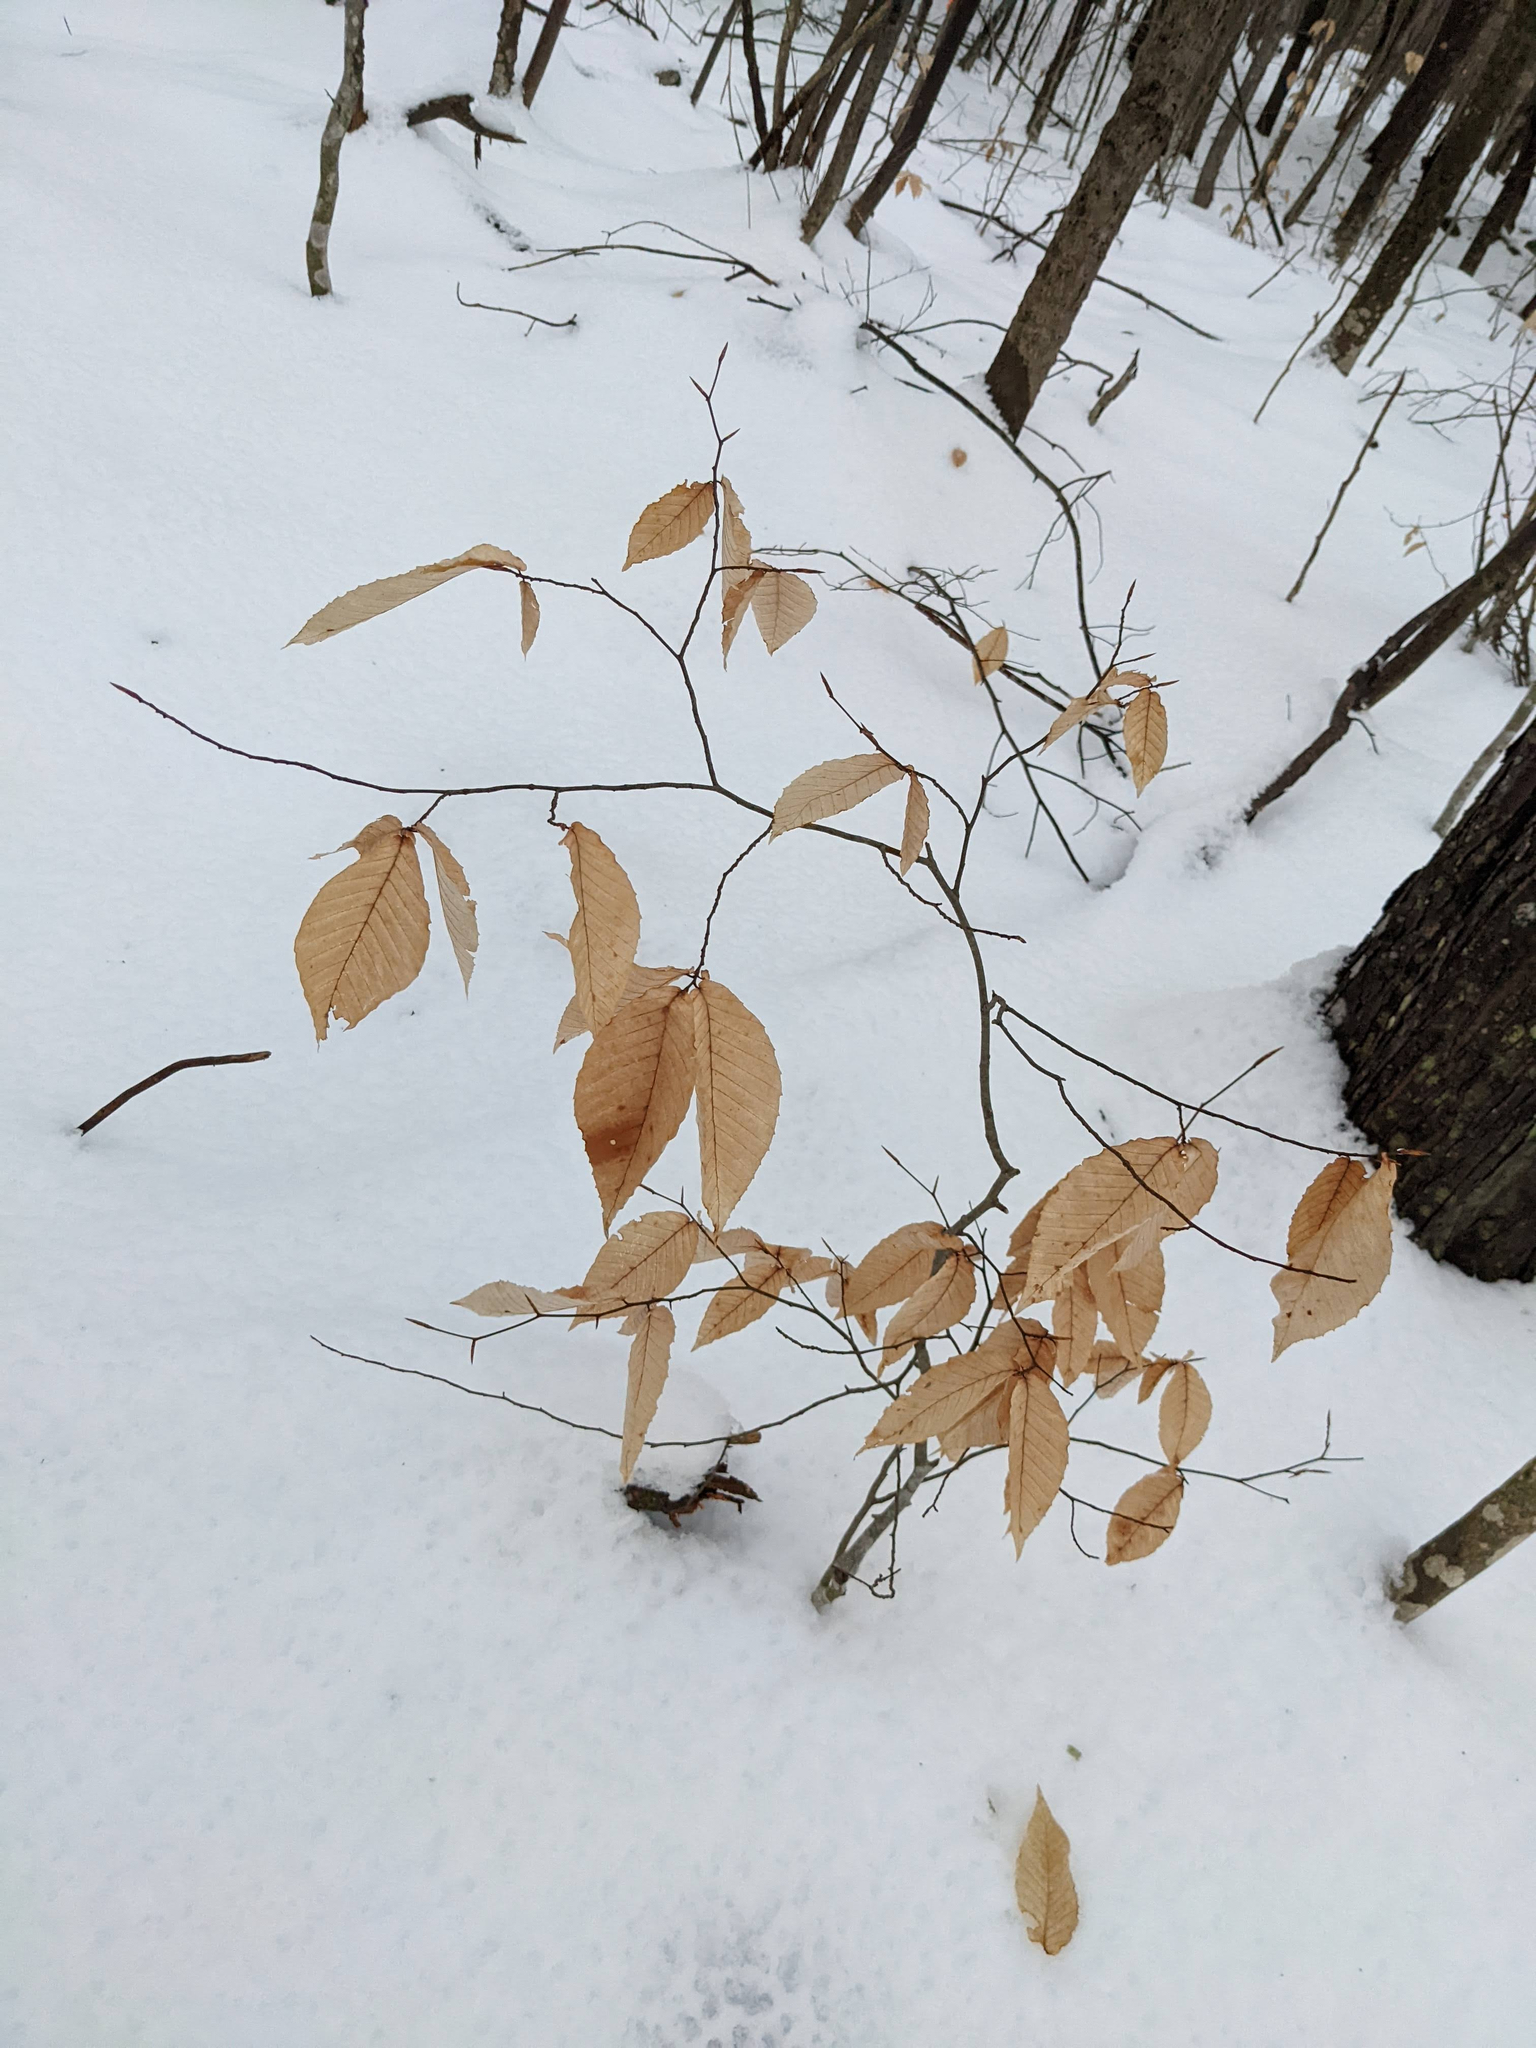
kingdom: Plantae
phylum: Tracheophyta
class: Magnoliopsida
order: Fagales
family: Fagaceae
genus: Fagus
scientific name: Fagus grandifolia
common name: American beech
